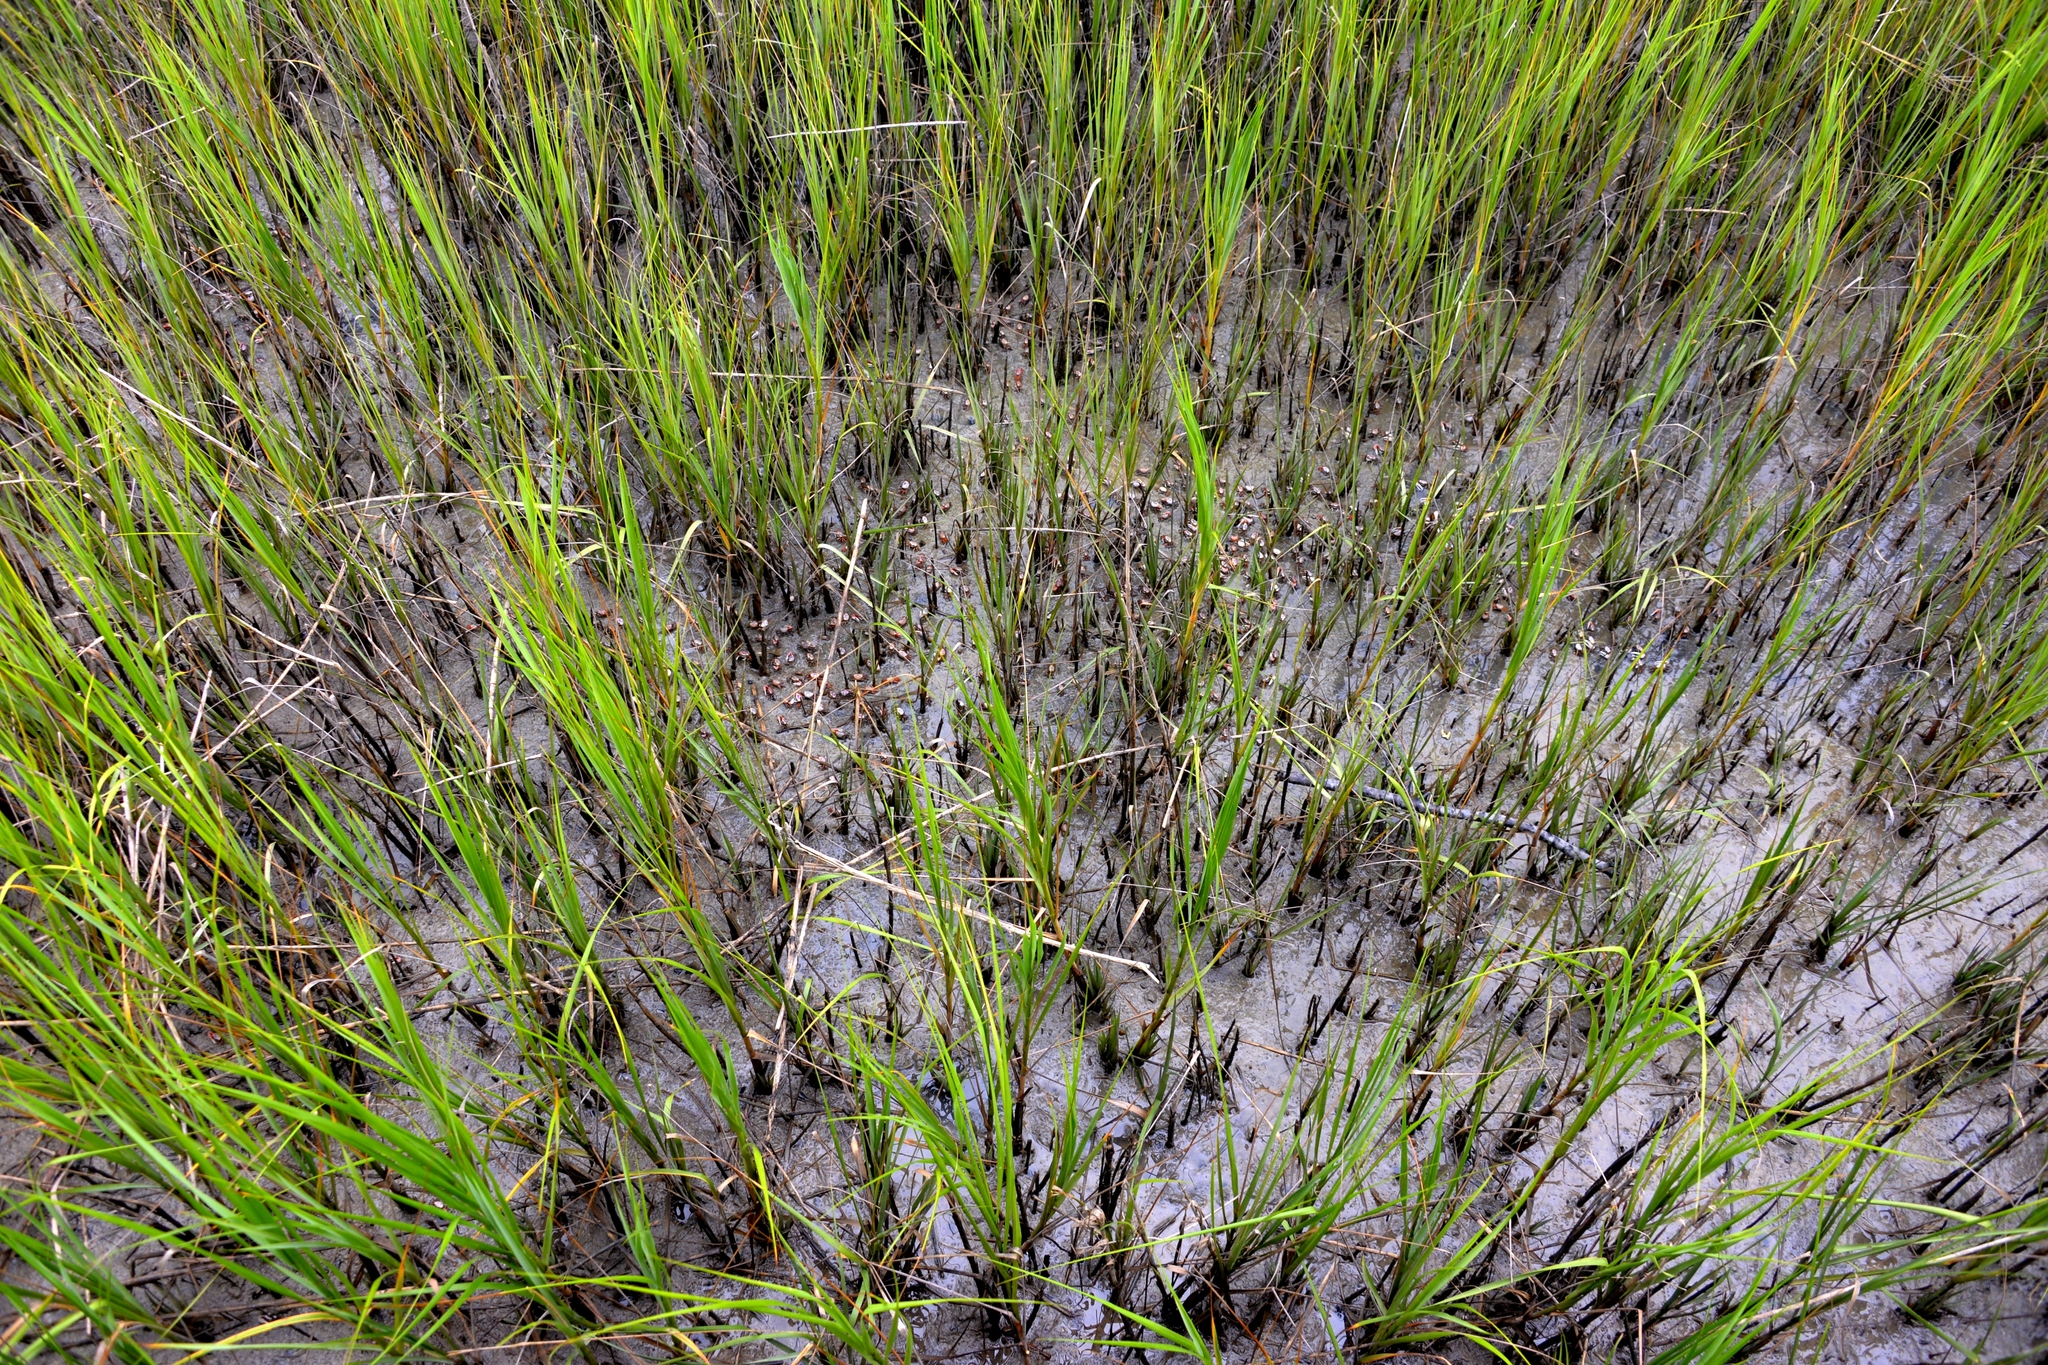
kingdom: Animalia
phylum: Arthropoda
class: Malacostraca
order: Decapoda
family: Ocypodidae
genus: Leptuca
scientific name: Leptuca pugilator
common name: Atlantic sand fiddler crab
